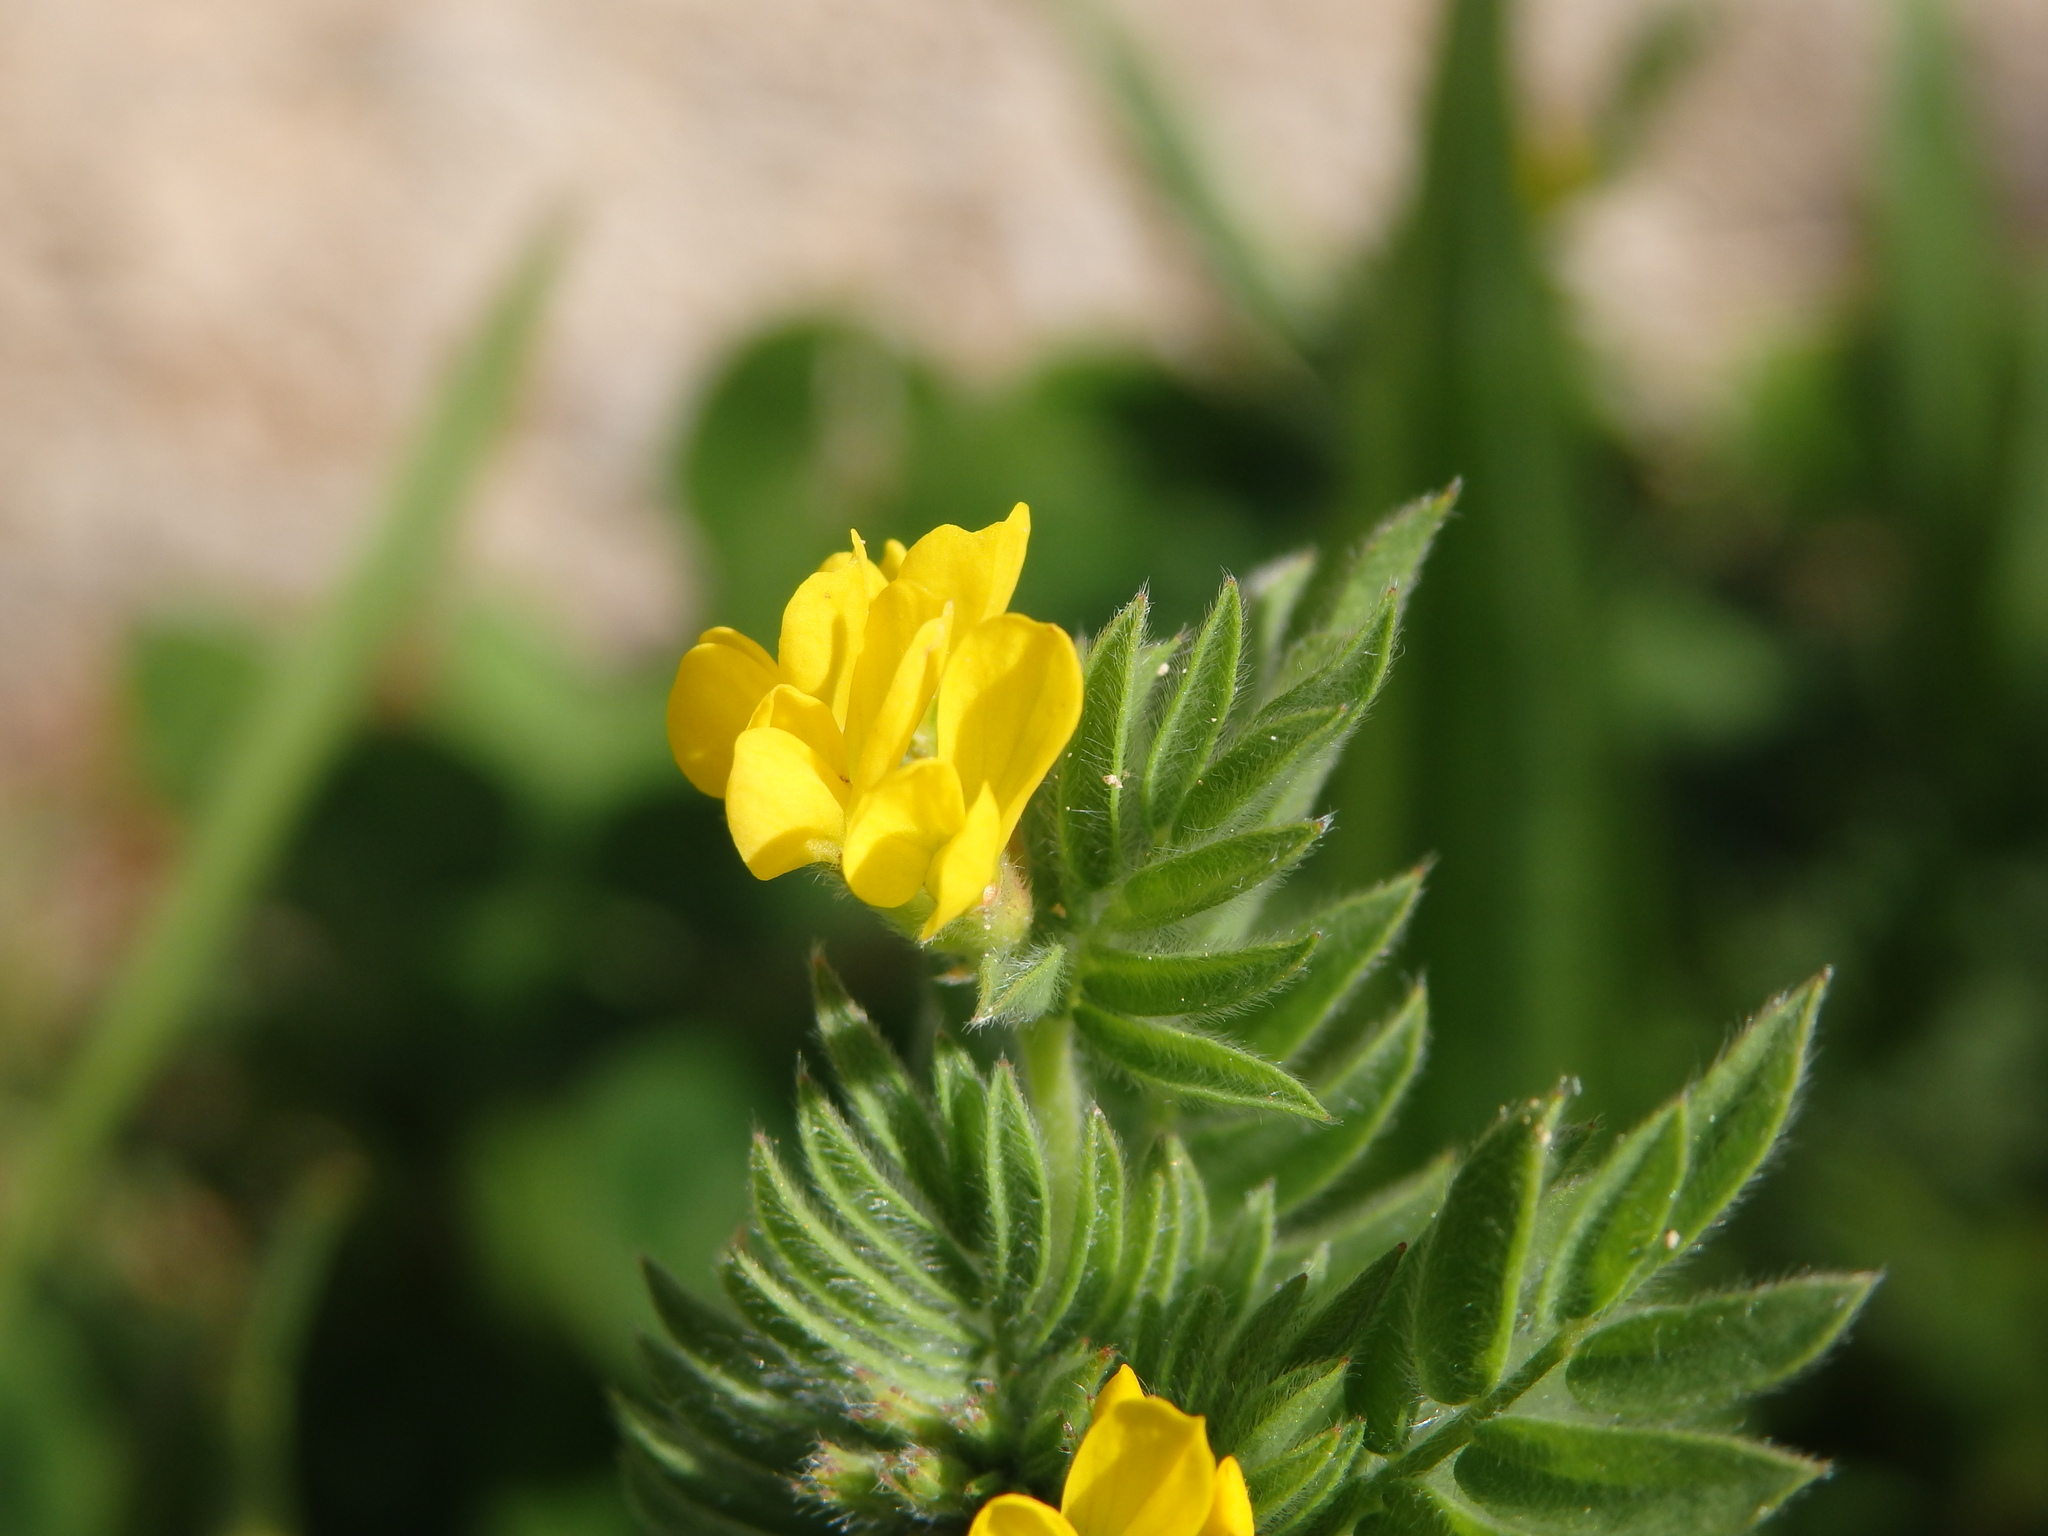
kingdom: Plantae
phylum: Tracheophyta
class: Magnoliopsida
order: Fabales
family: Fabaceae
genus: Ornithopus
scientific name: Ornithopus compressus
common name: Yellow serradella
